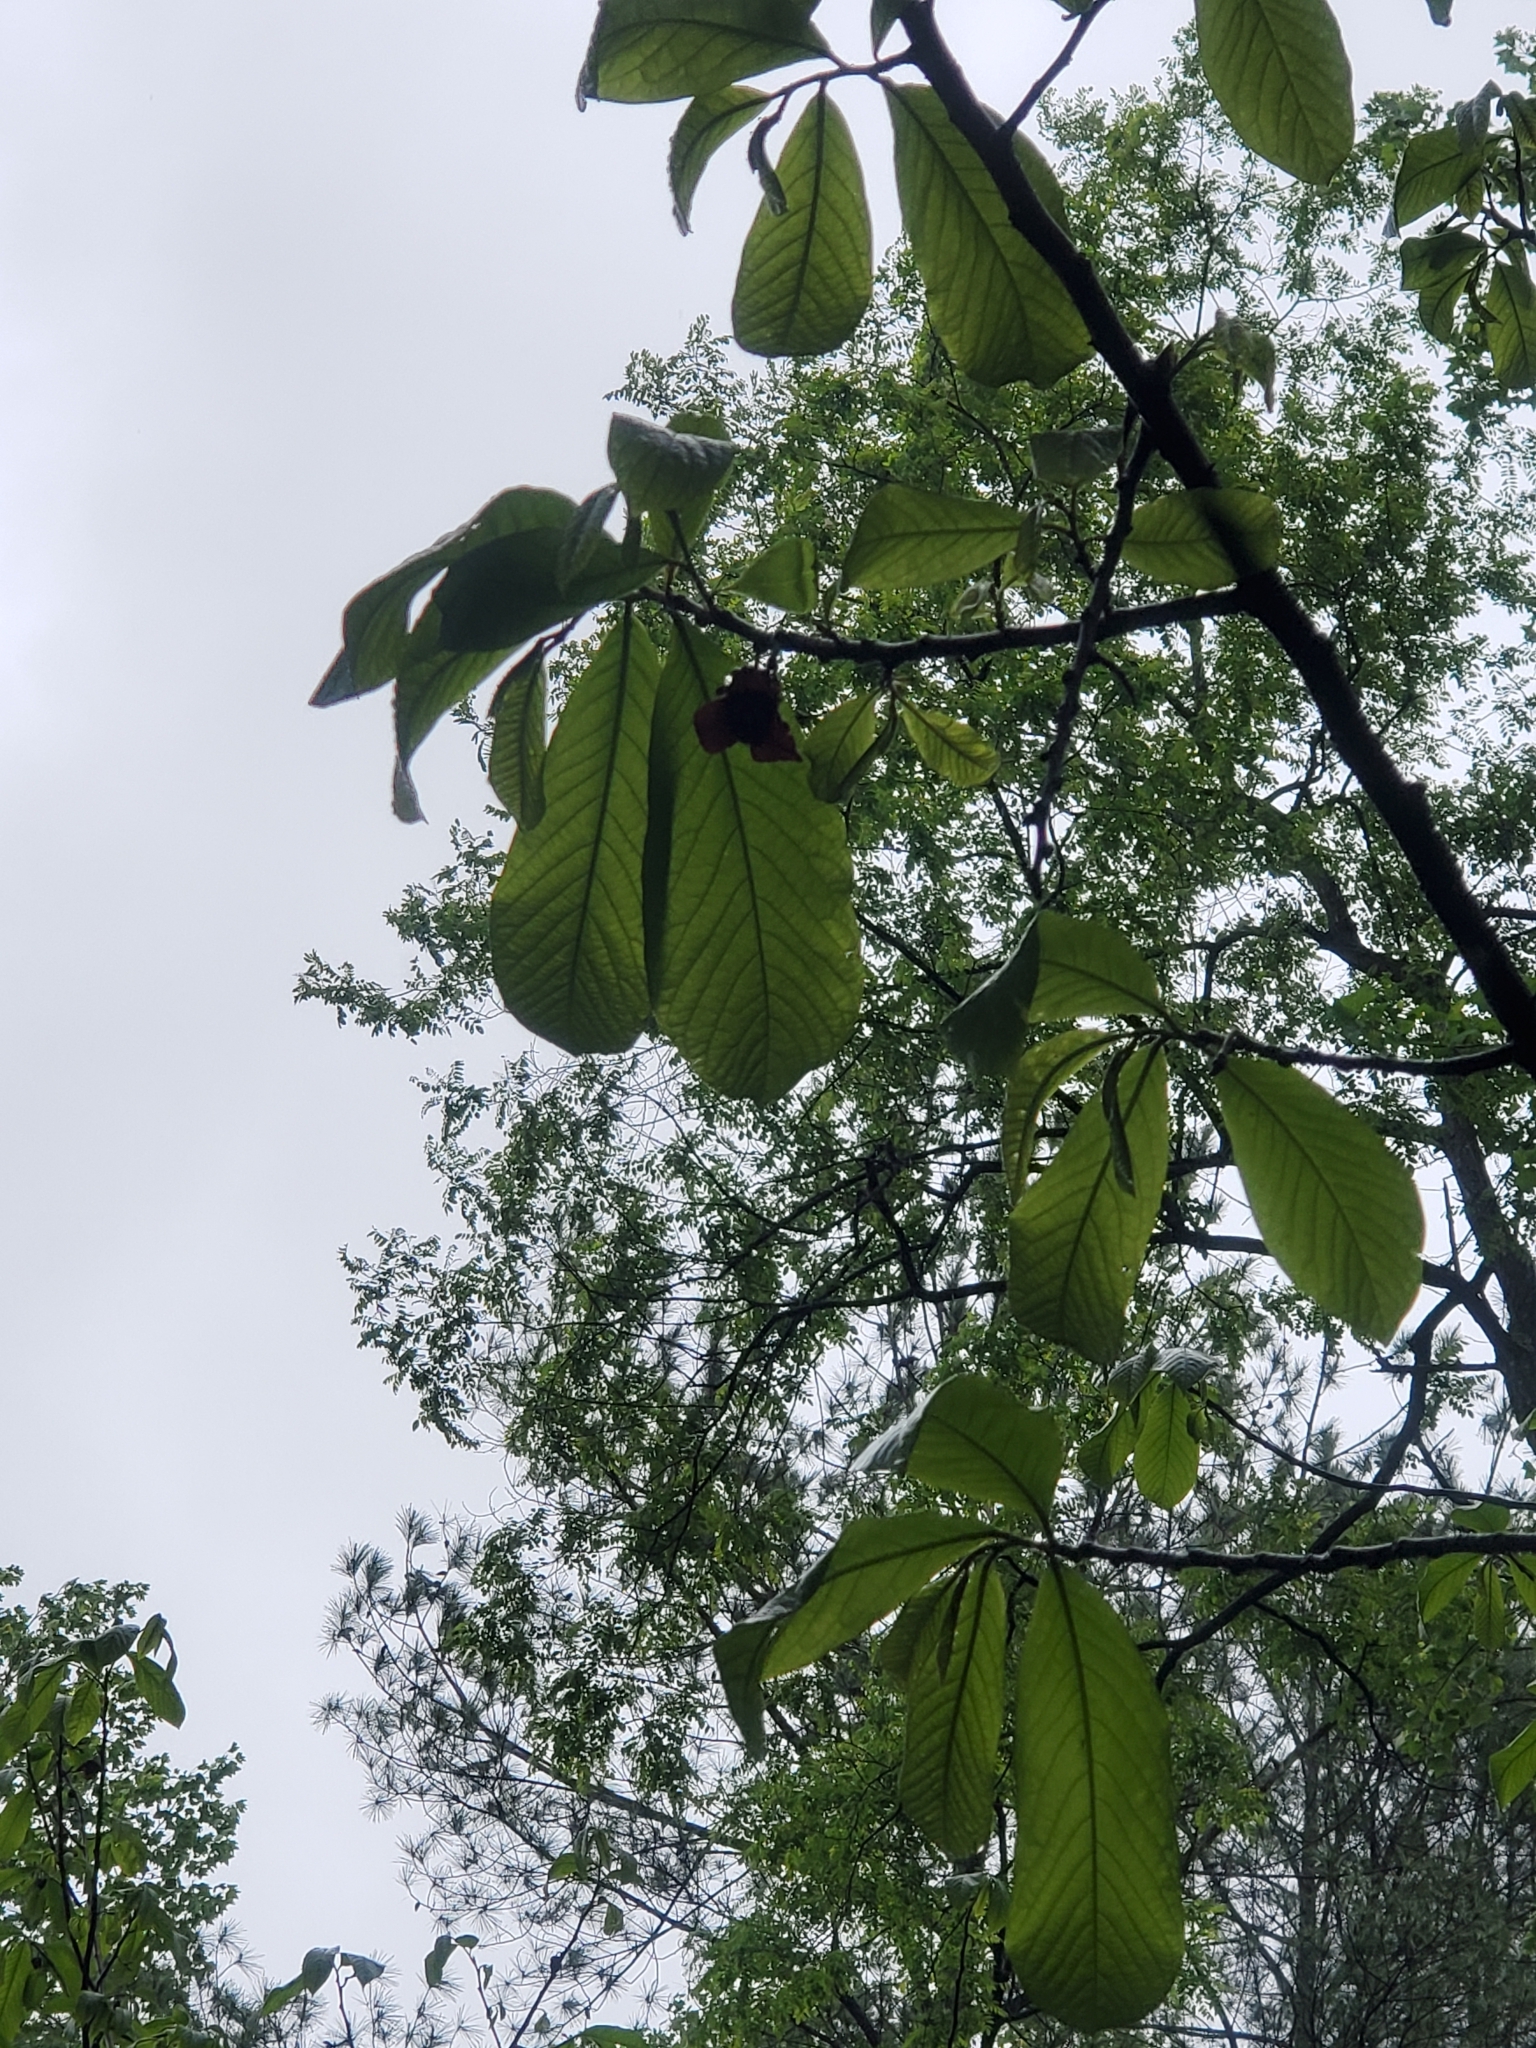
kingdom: Plantae
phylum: Tracheophyta
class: Magnoliopsida
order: Magnoliales
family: Annonaceae
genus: Asimina
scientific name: Asimina triloba
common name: Dog-banana
